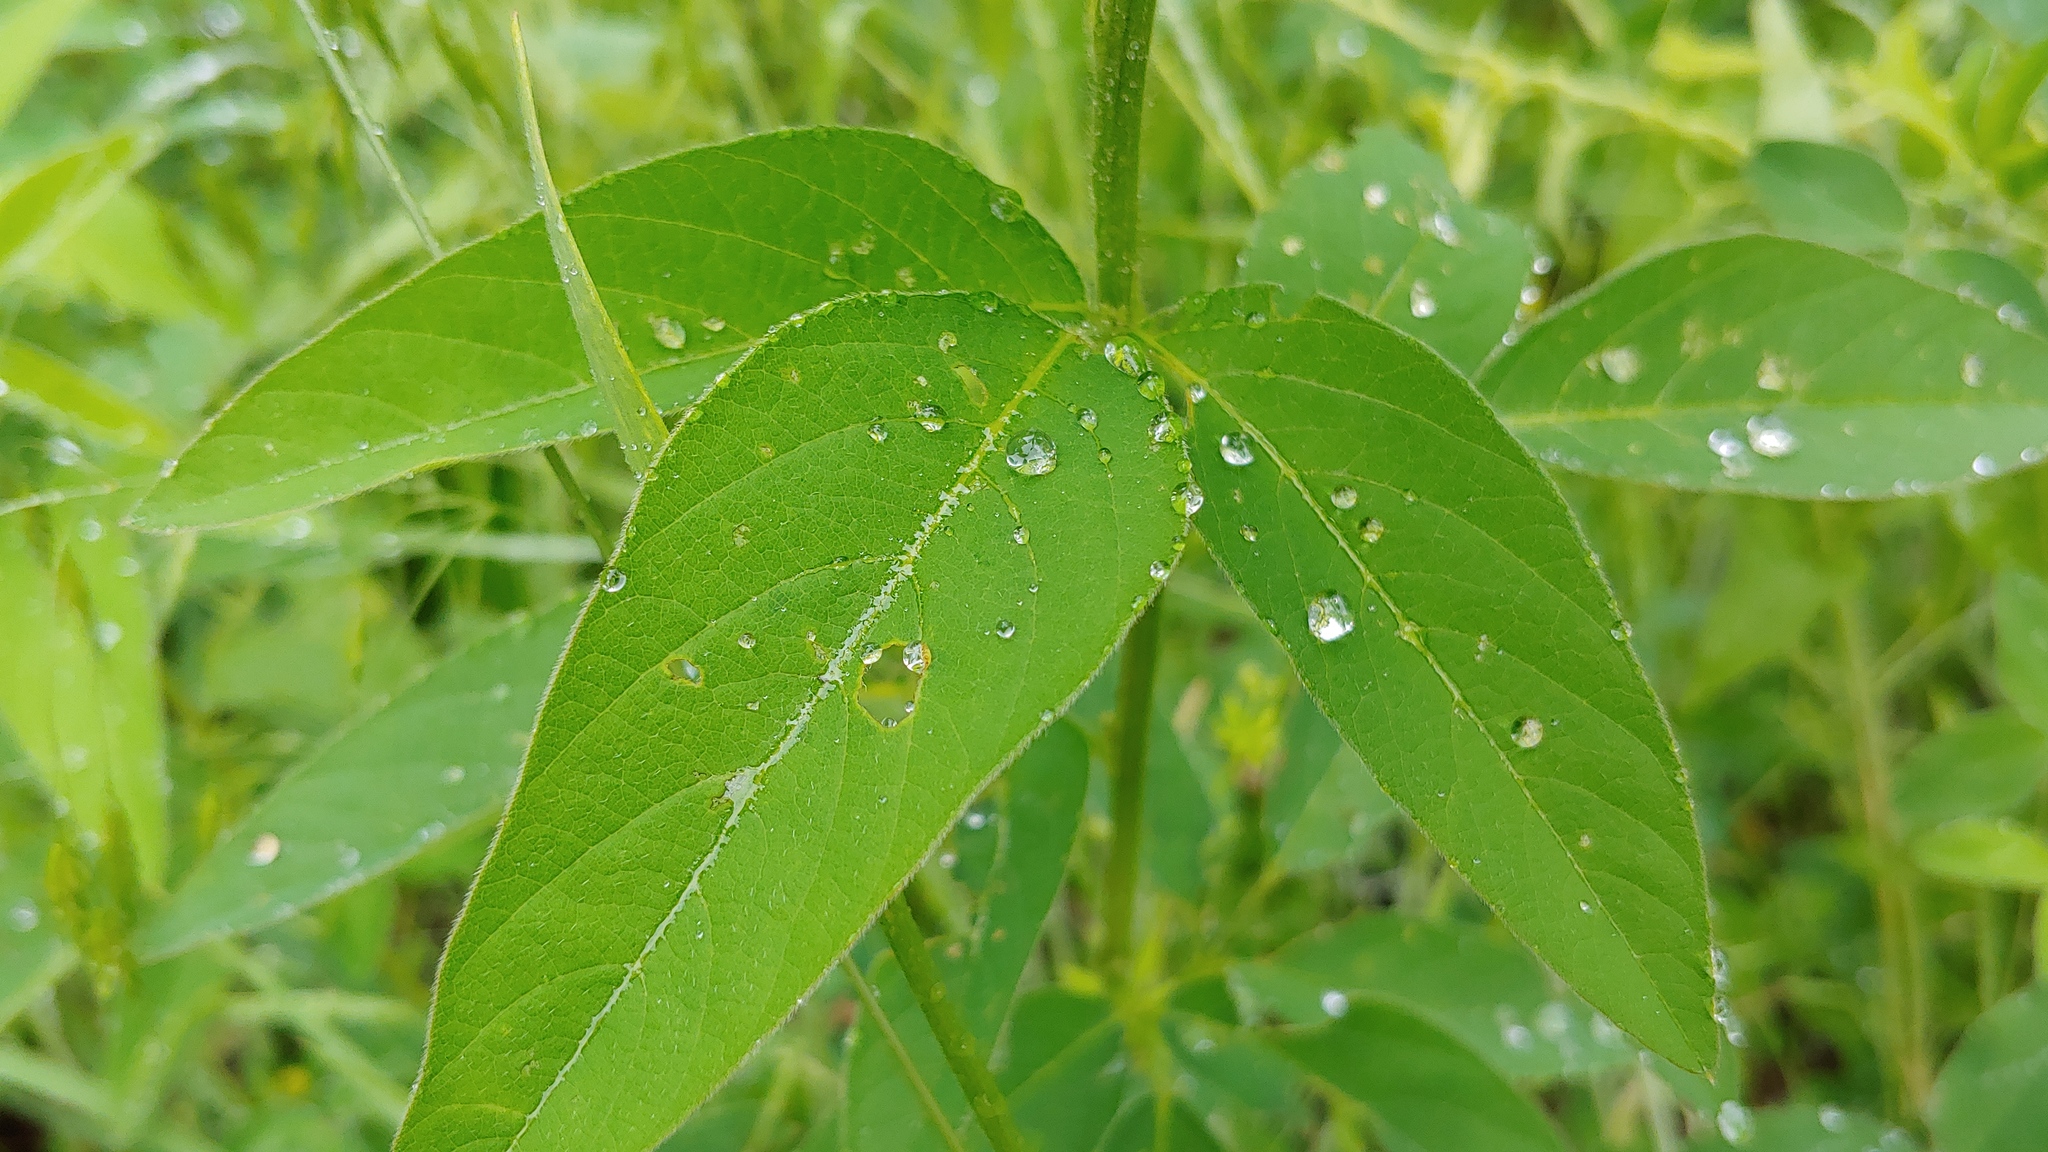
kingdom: Plantae
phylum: Tracheophyta
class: Magnoliopsida
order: Fabales
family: Fabaceae
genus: Desmodium
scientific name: Desmodium canadense
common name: Canada tick-trefoil
